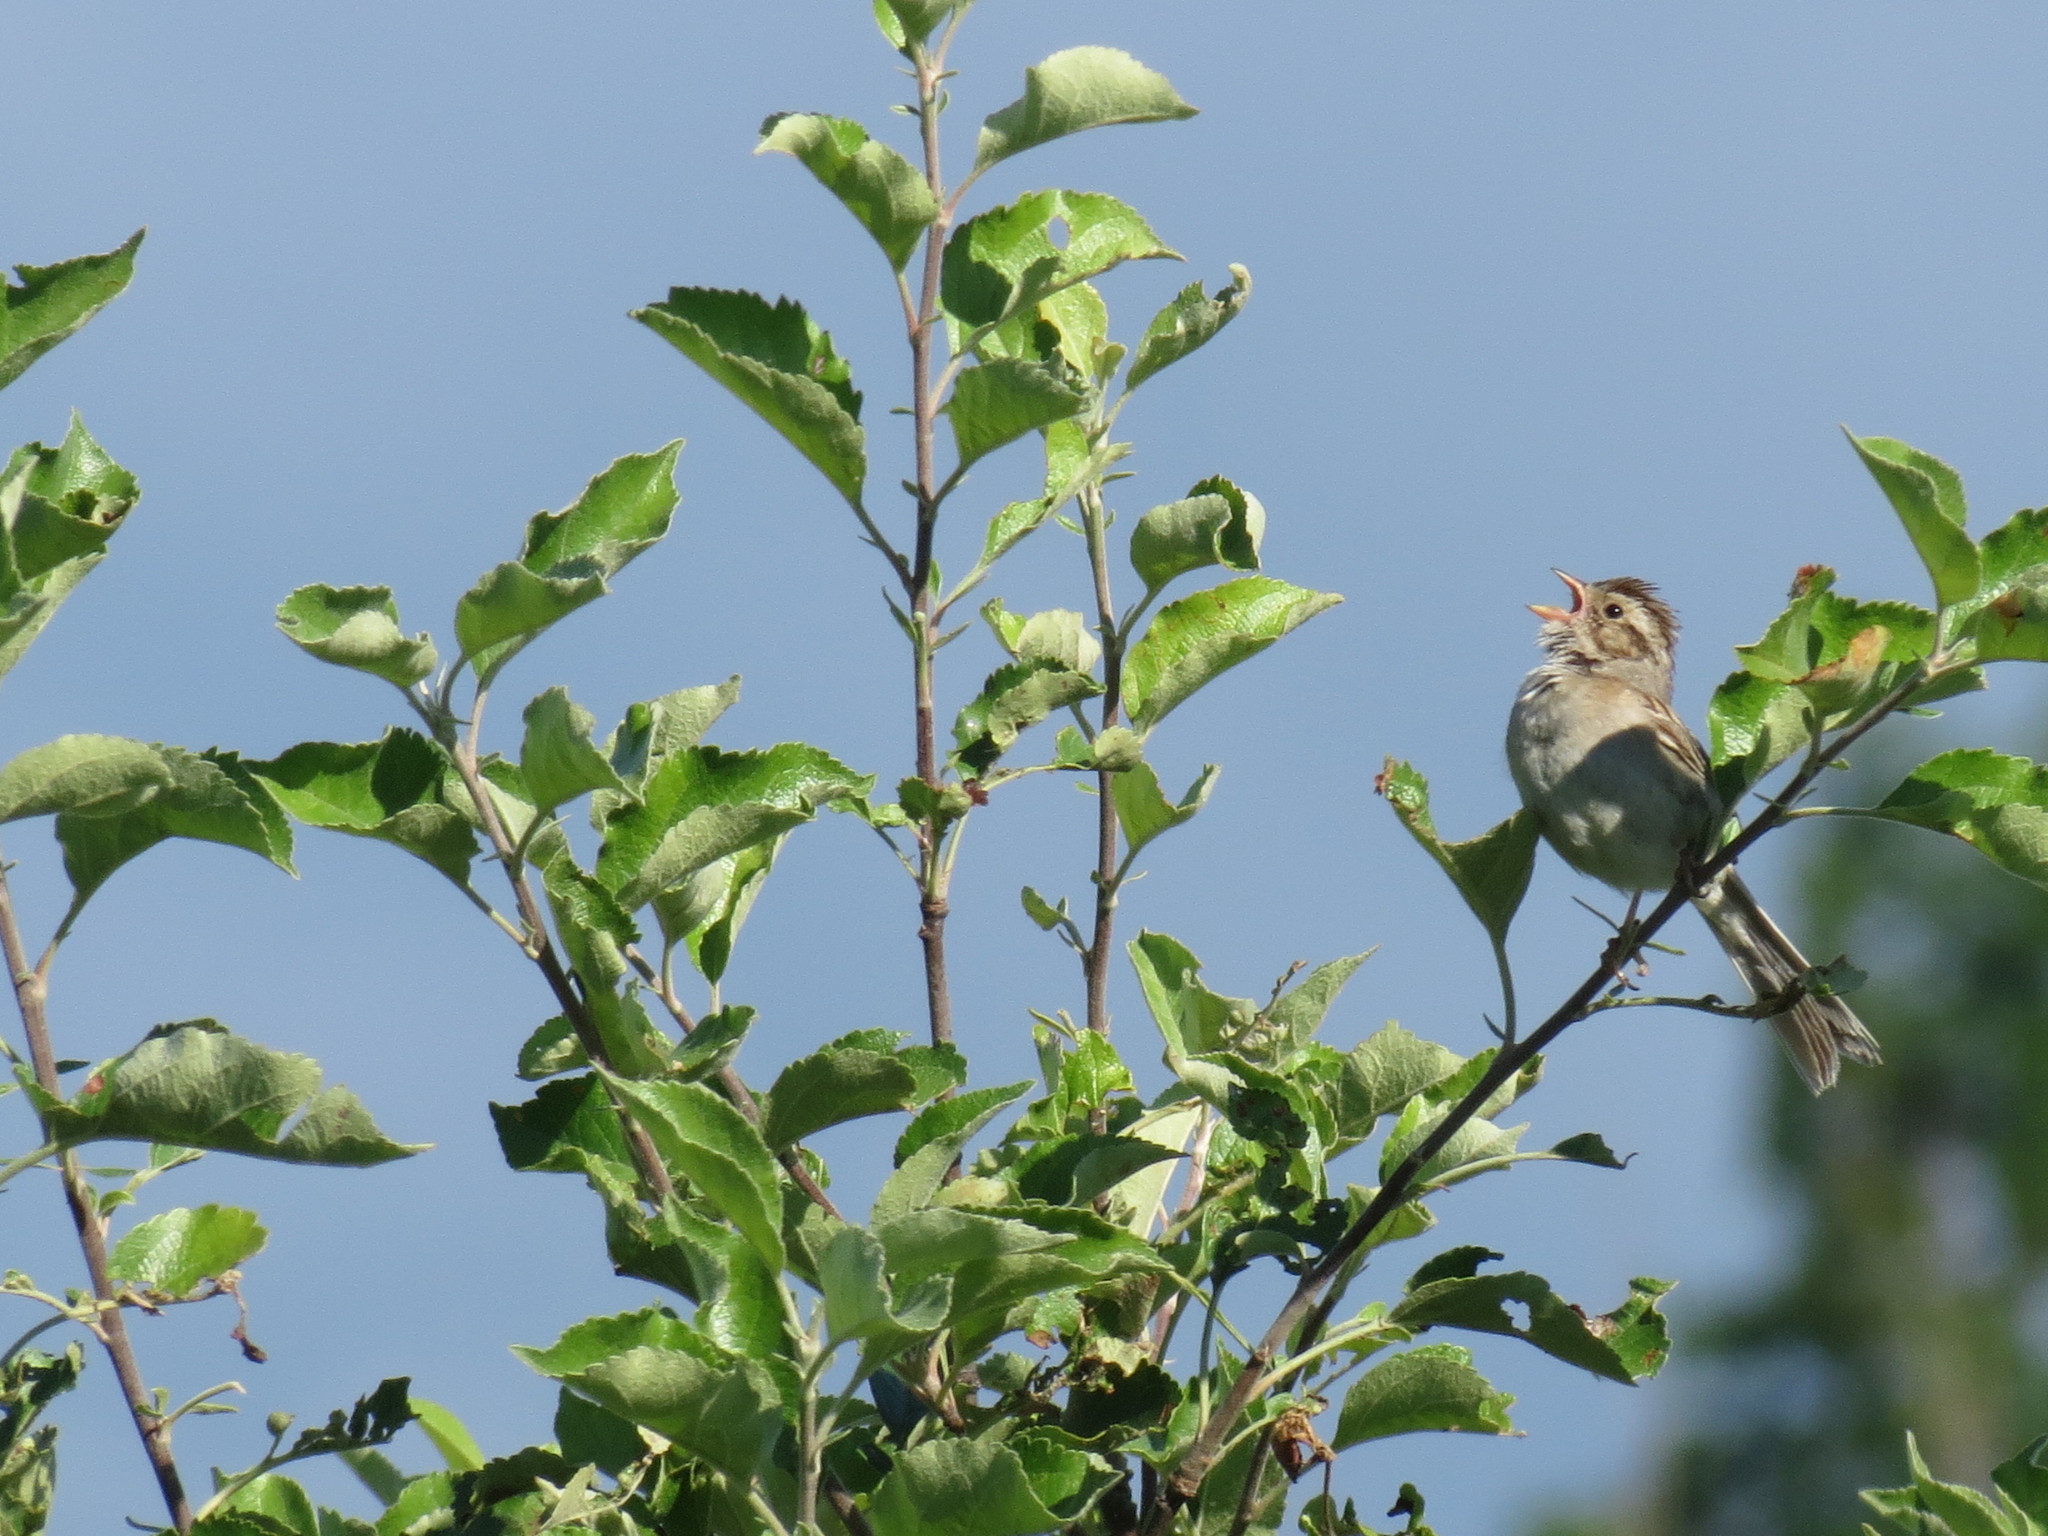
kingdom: Animalia
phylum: Chordata
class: Aves
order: Passeriformes
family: Passerellidae
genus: Spizella
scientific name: Spizella pallida
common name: Clay-colored sparrow
